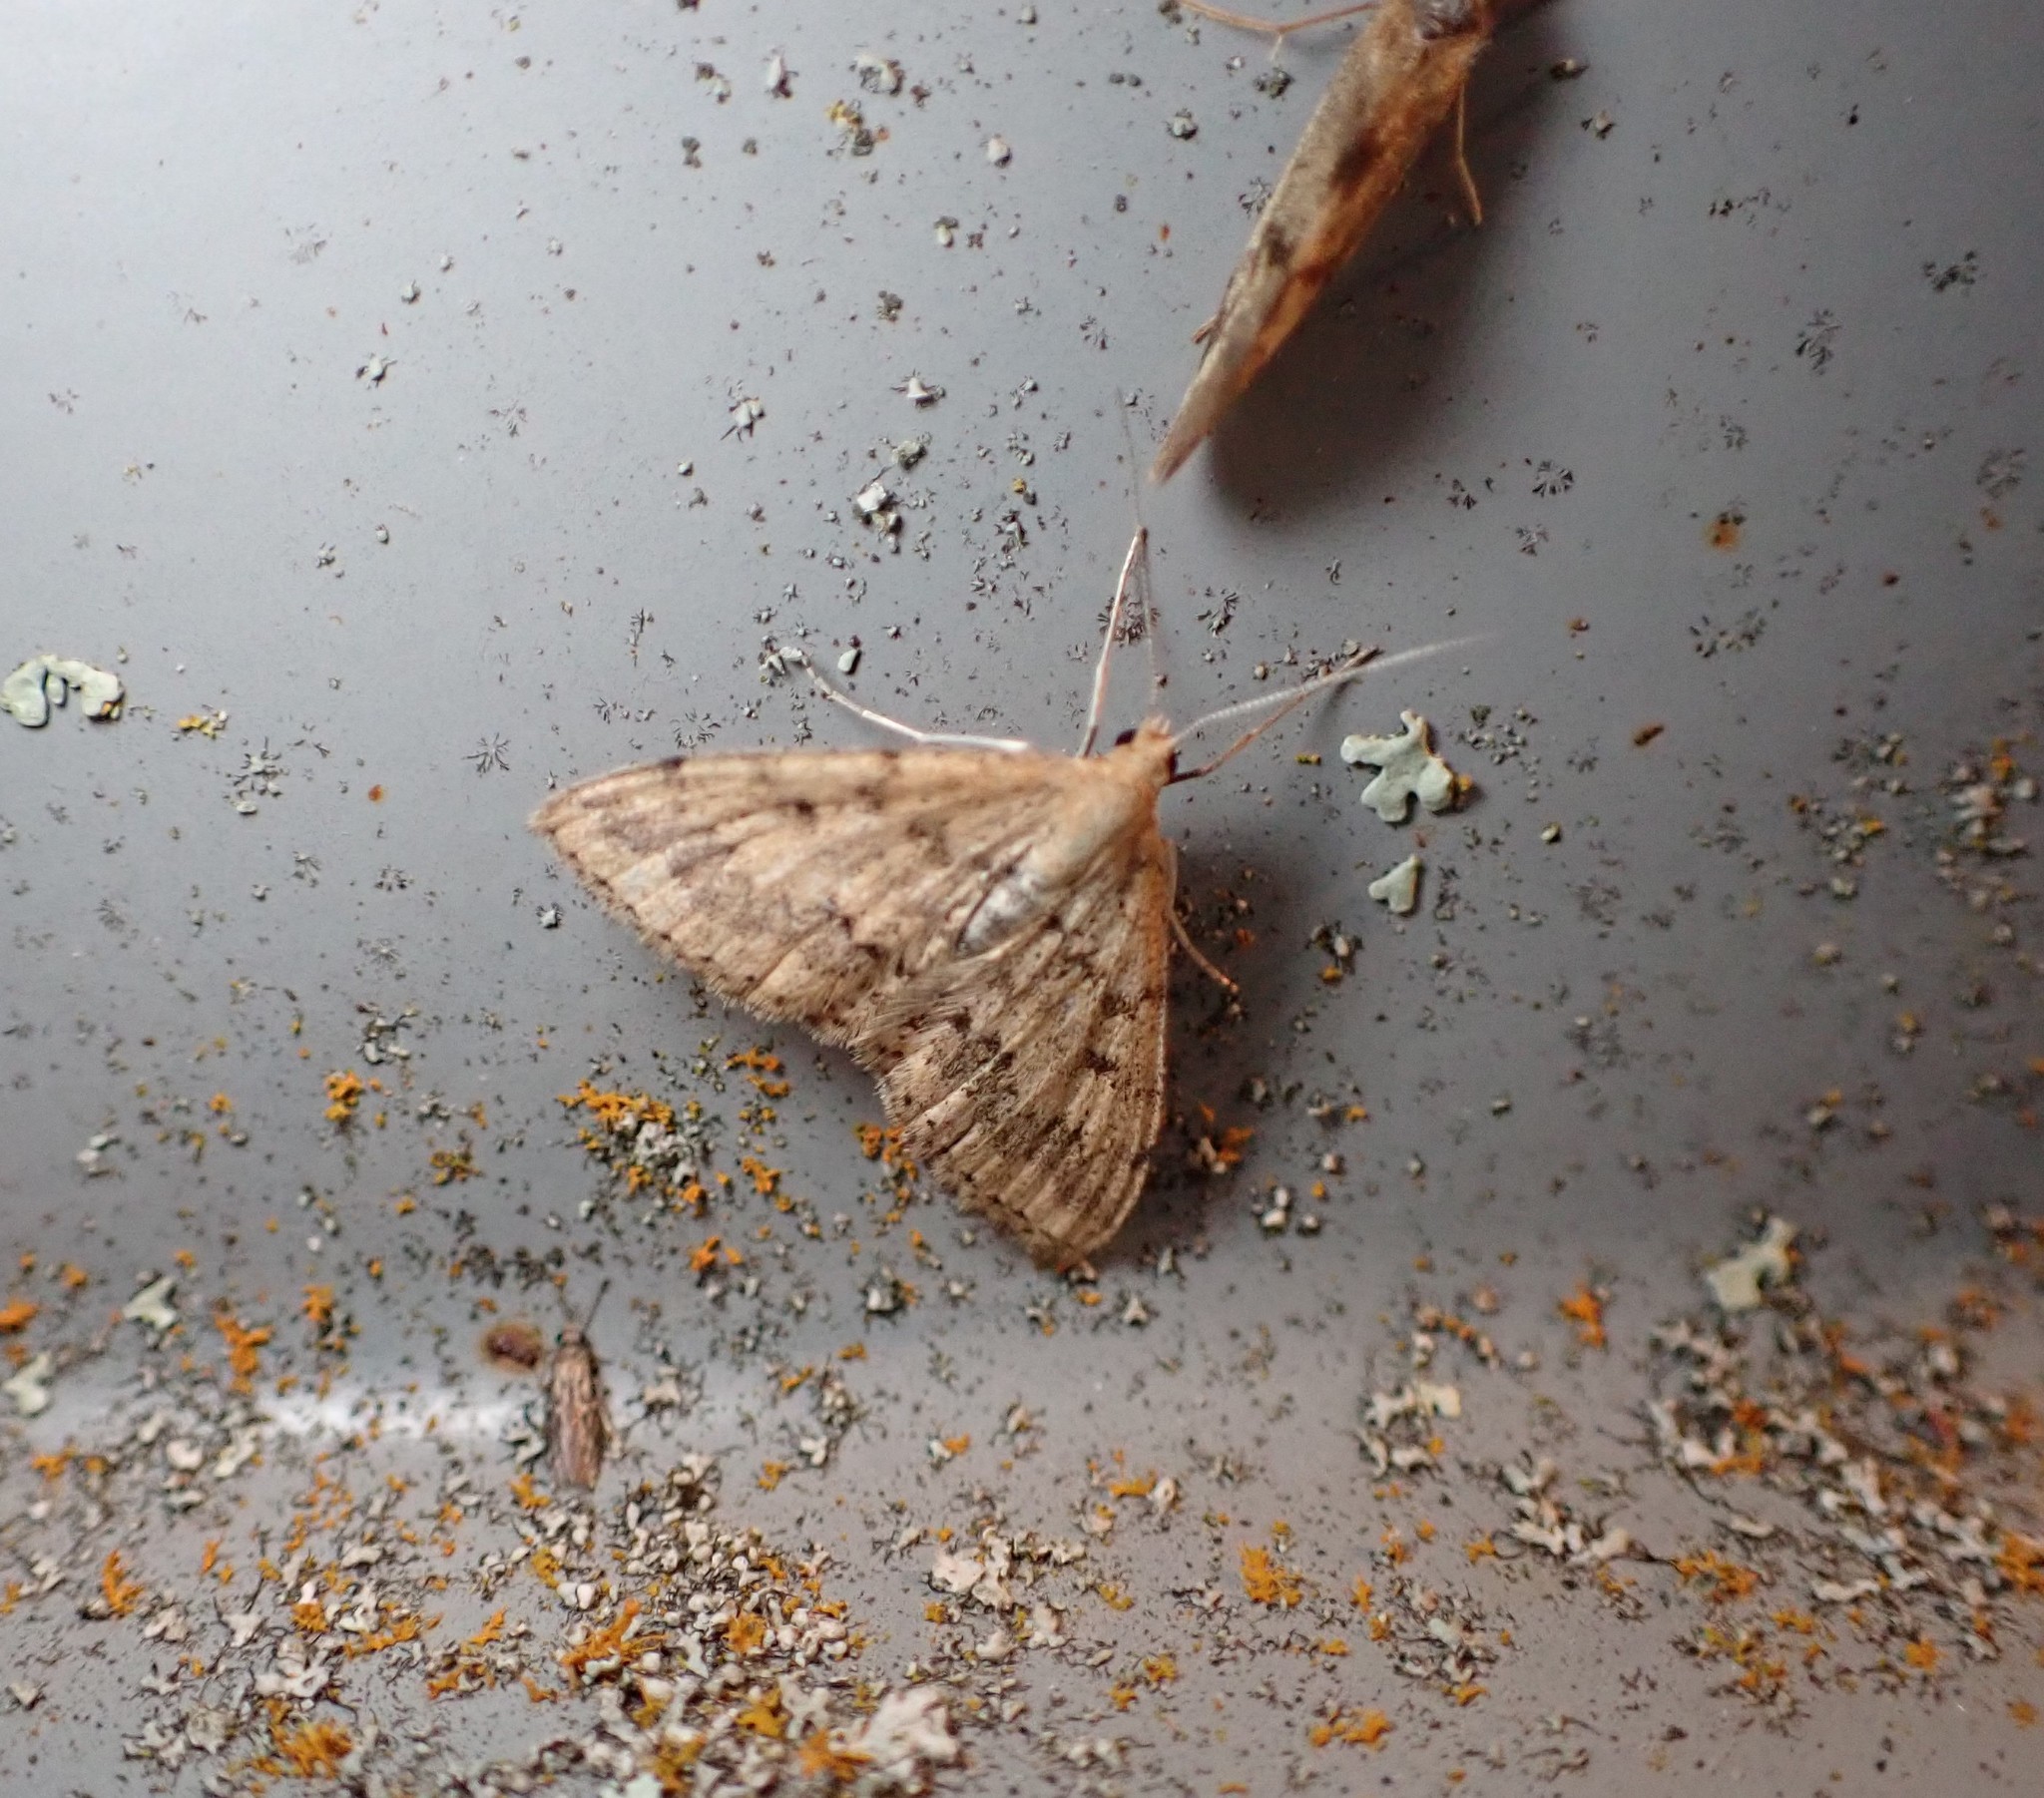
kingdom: Animalia
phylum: Arthropoda
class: Insecta
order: Lepidoptera
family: Geometridae
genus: Scopula
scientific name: Scopula rubraria
